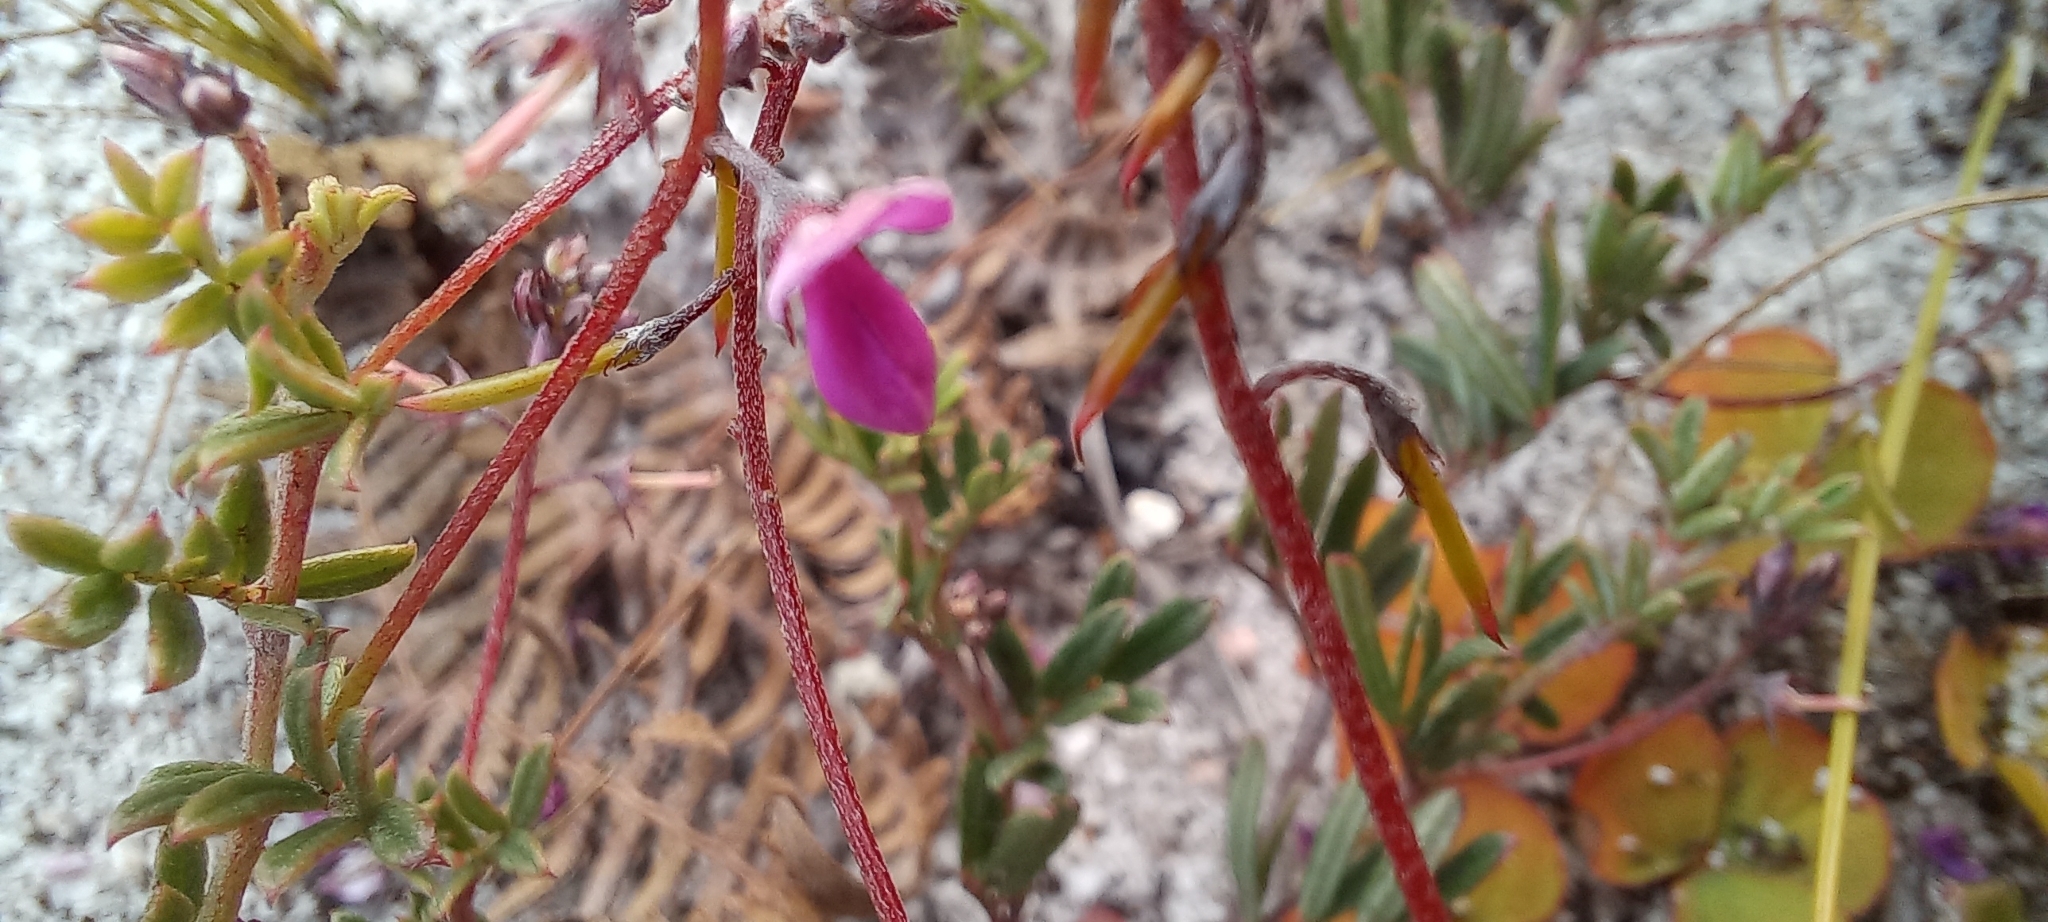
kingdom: Plantae
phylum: Tracheophyta
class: Magnoliopsida
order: Fabales
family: Fabaceae
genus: Indigofera
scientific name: Indigofera angustifolia
